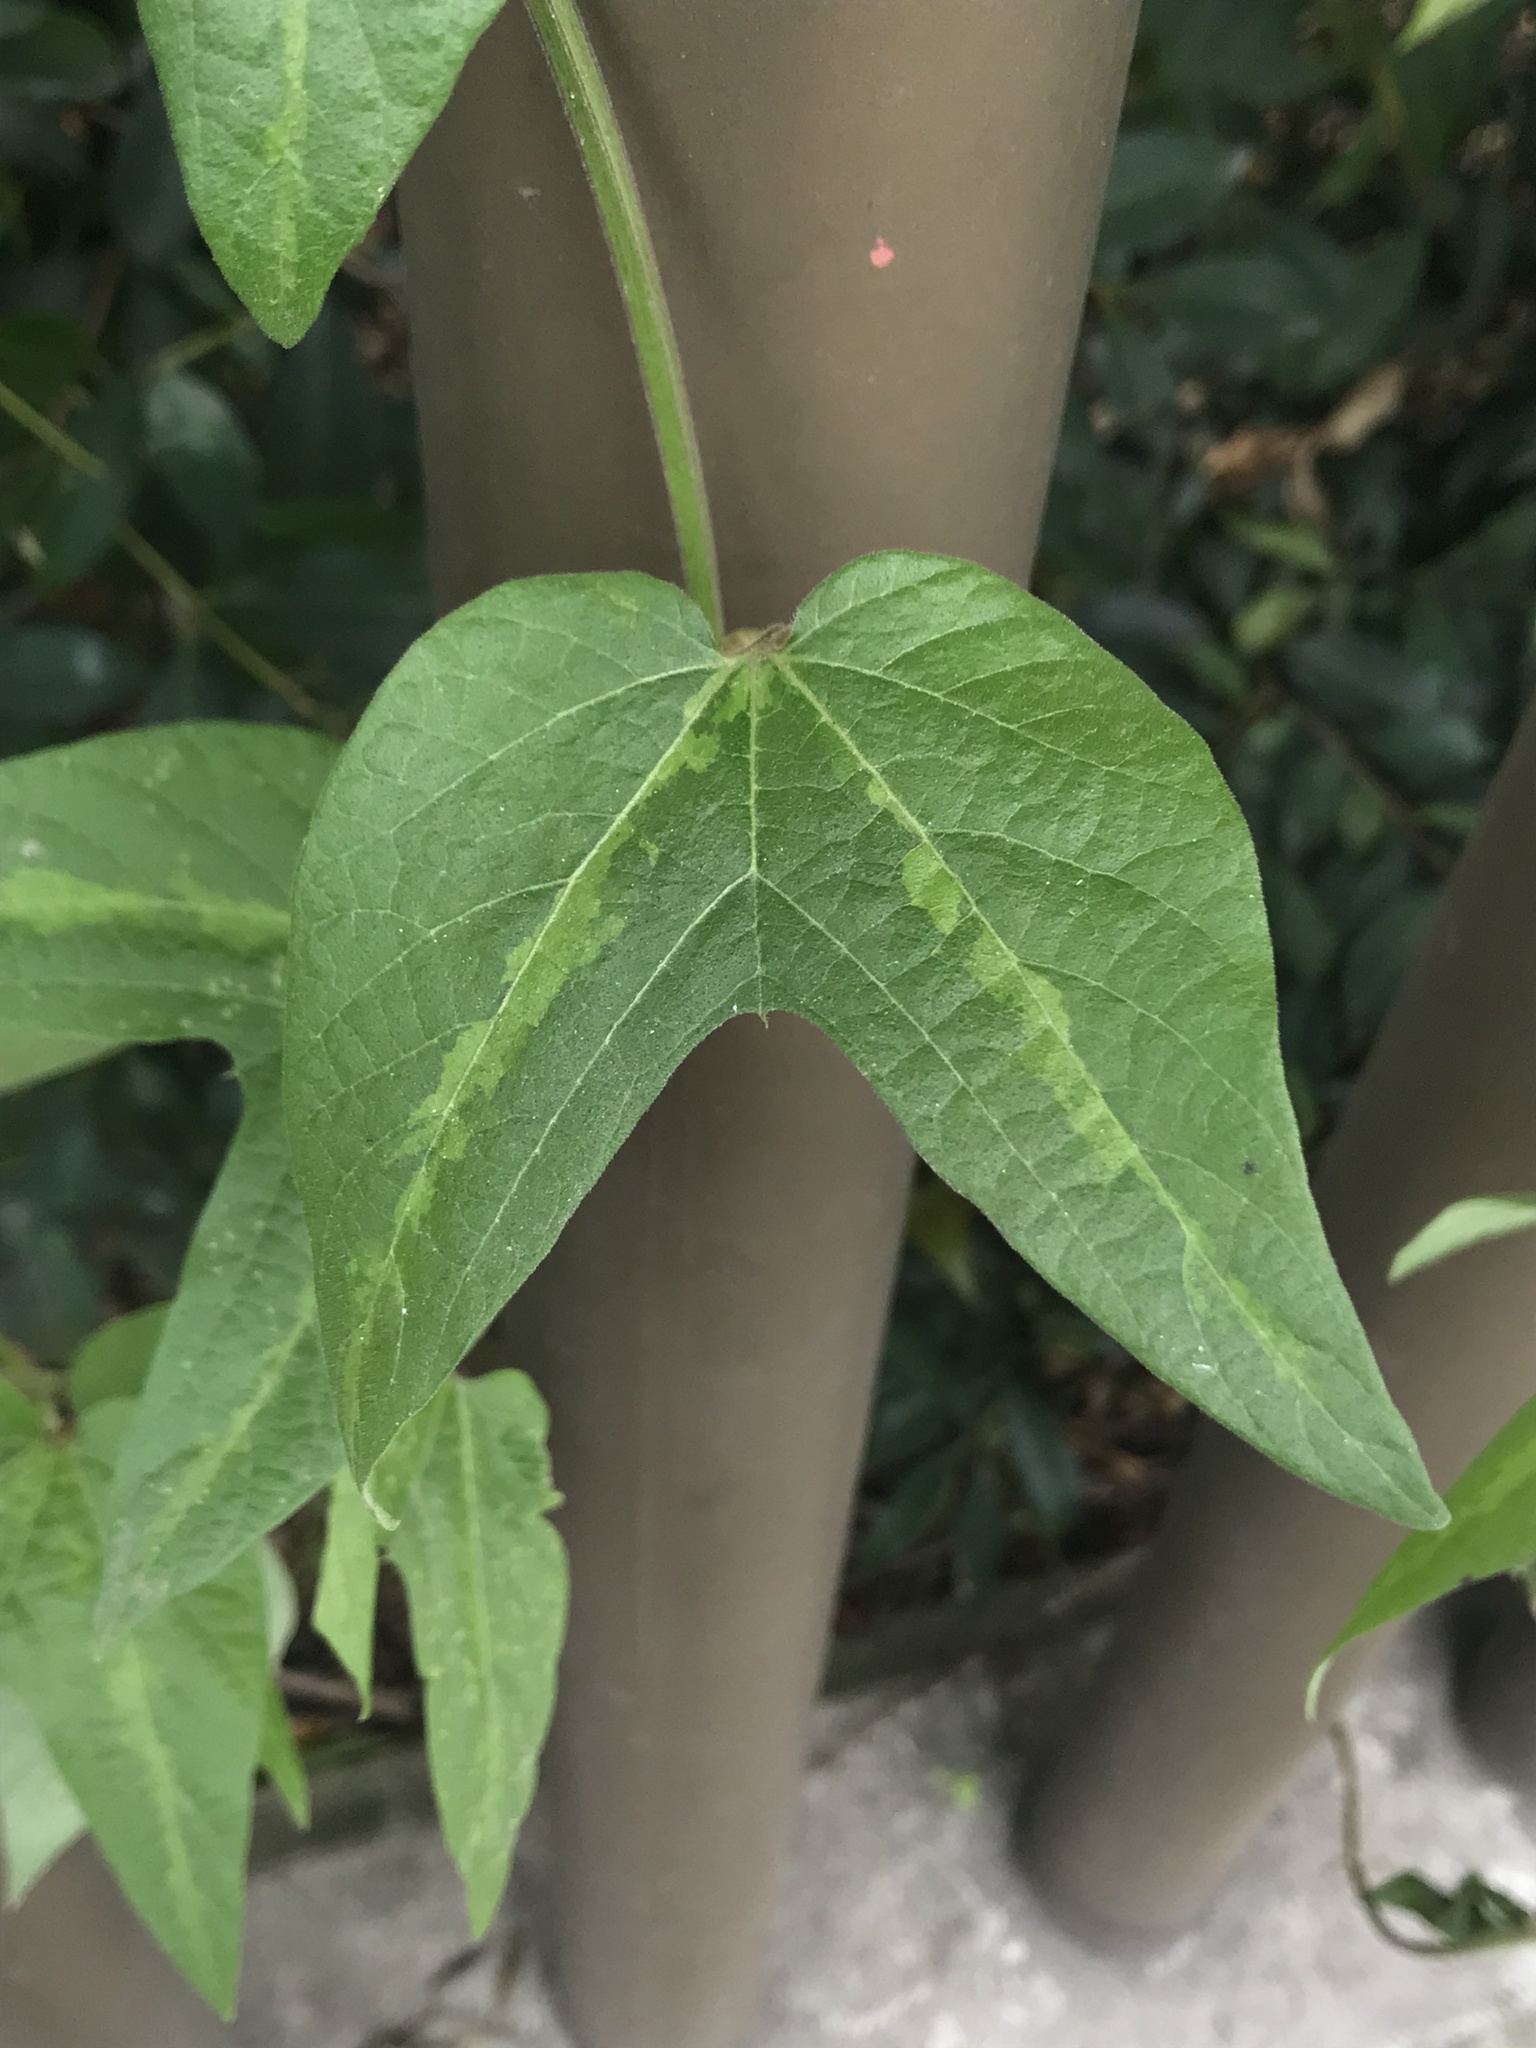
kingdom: Plantae
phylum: Tracheophyta
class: Magnoliopsida
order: Malpighiales
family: Passifloraceae
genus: Passiflora
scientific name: Passiflora capsularis
